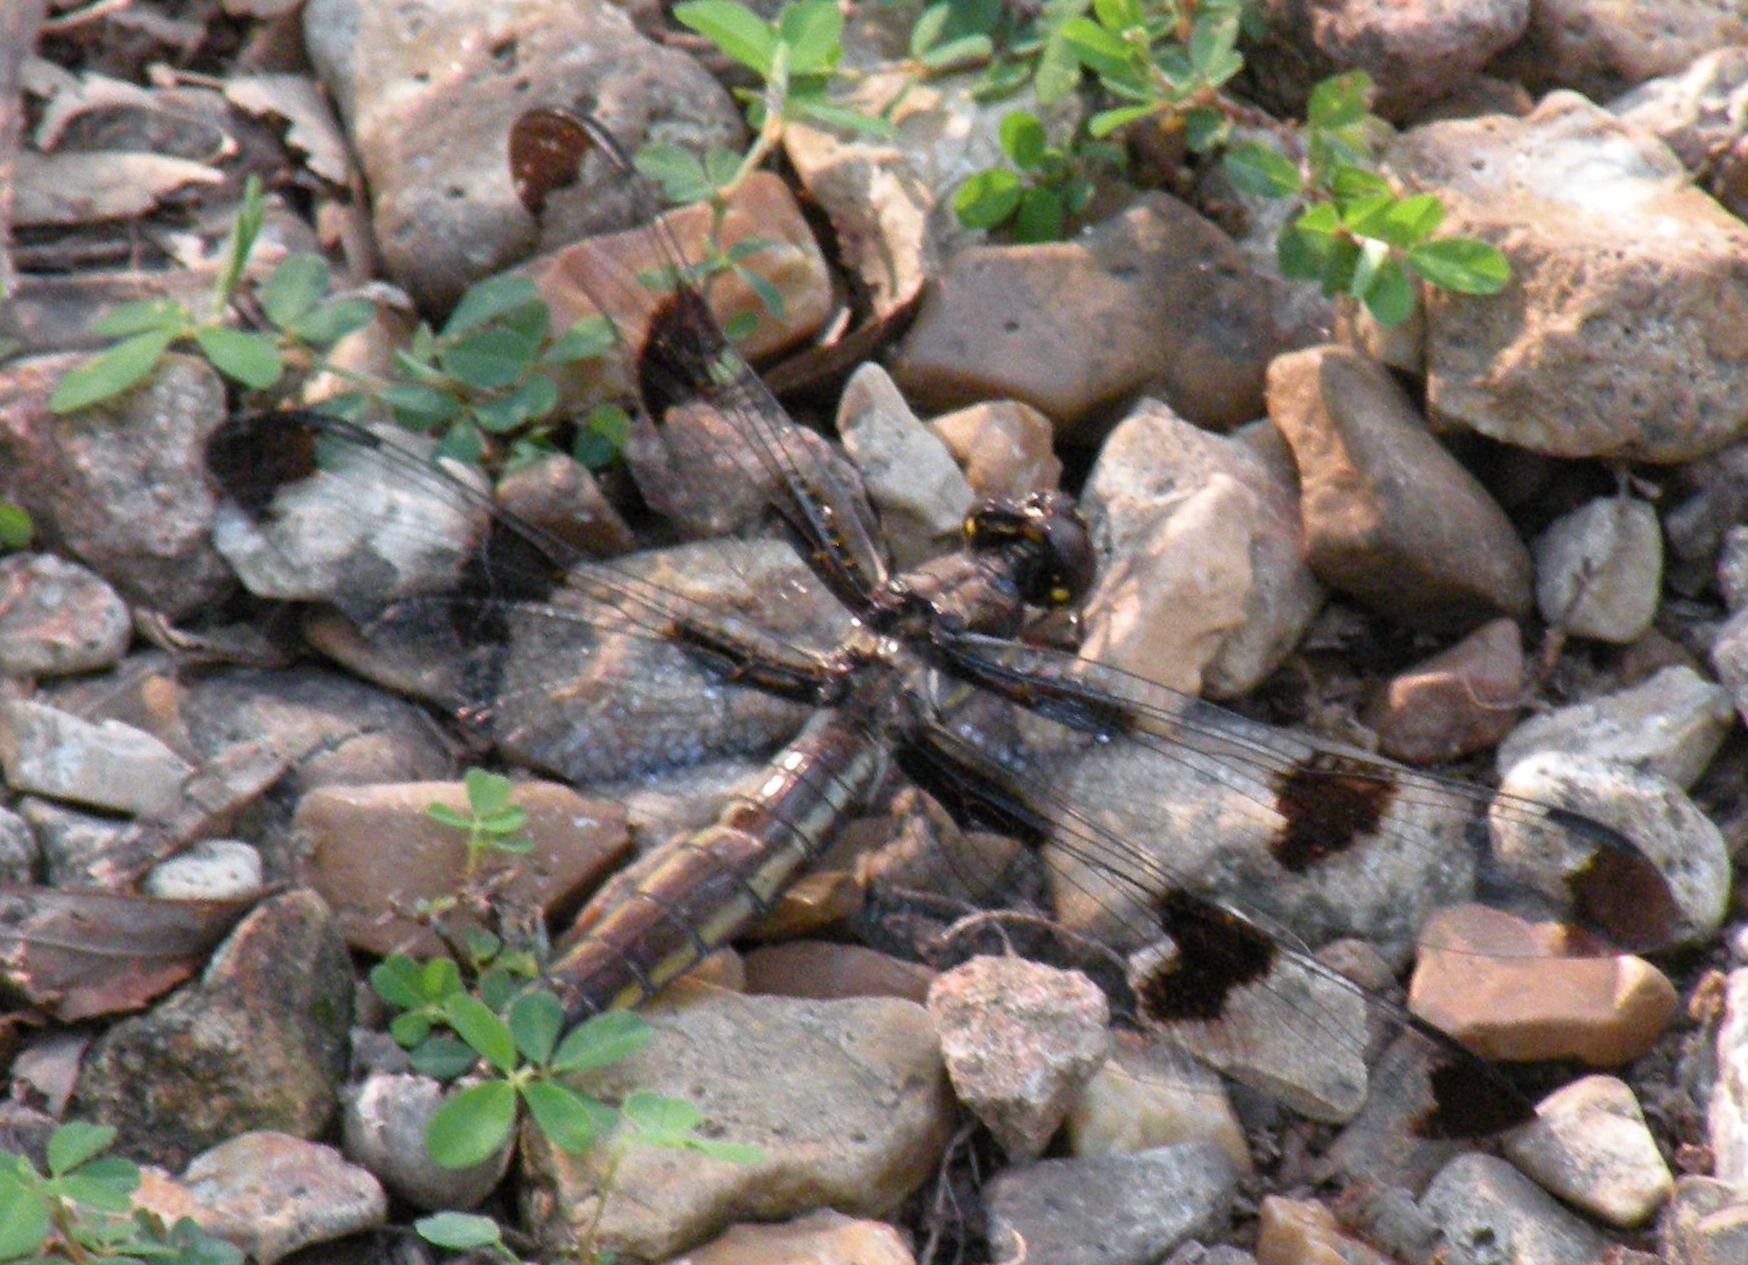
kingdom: Animalia
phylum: Arthropoda
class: Insecta
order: Odonata
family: Libellulidae
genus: Libellula
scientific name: Libellula pulchella
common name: Twelve-spotted skimmer
